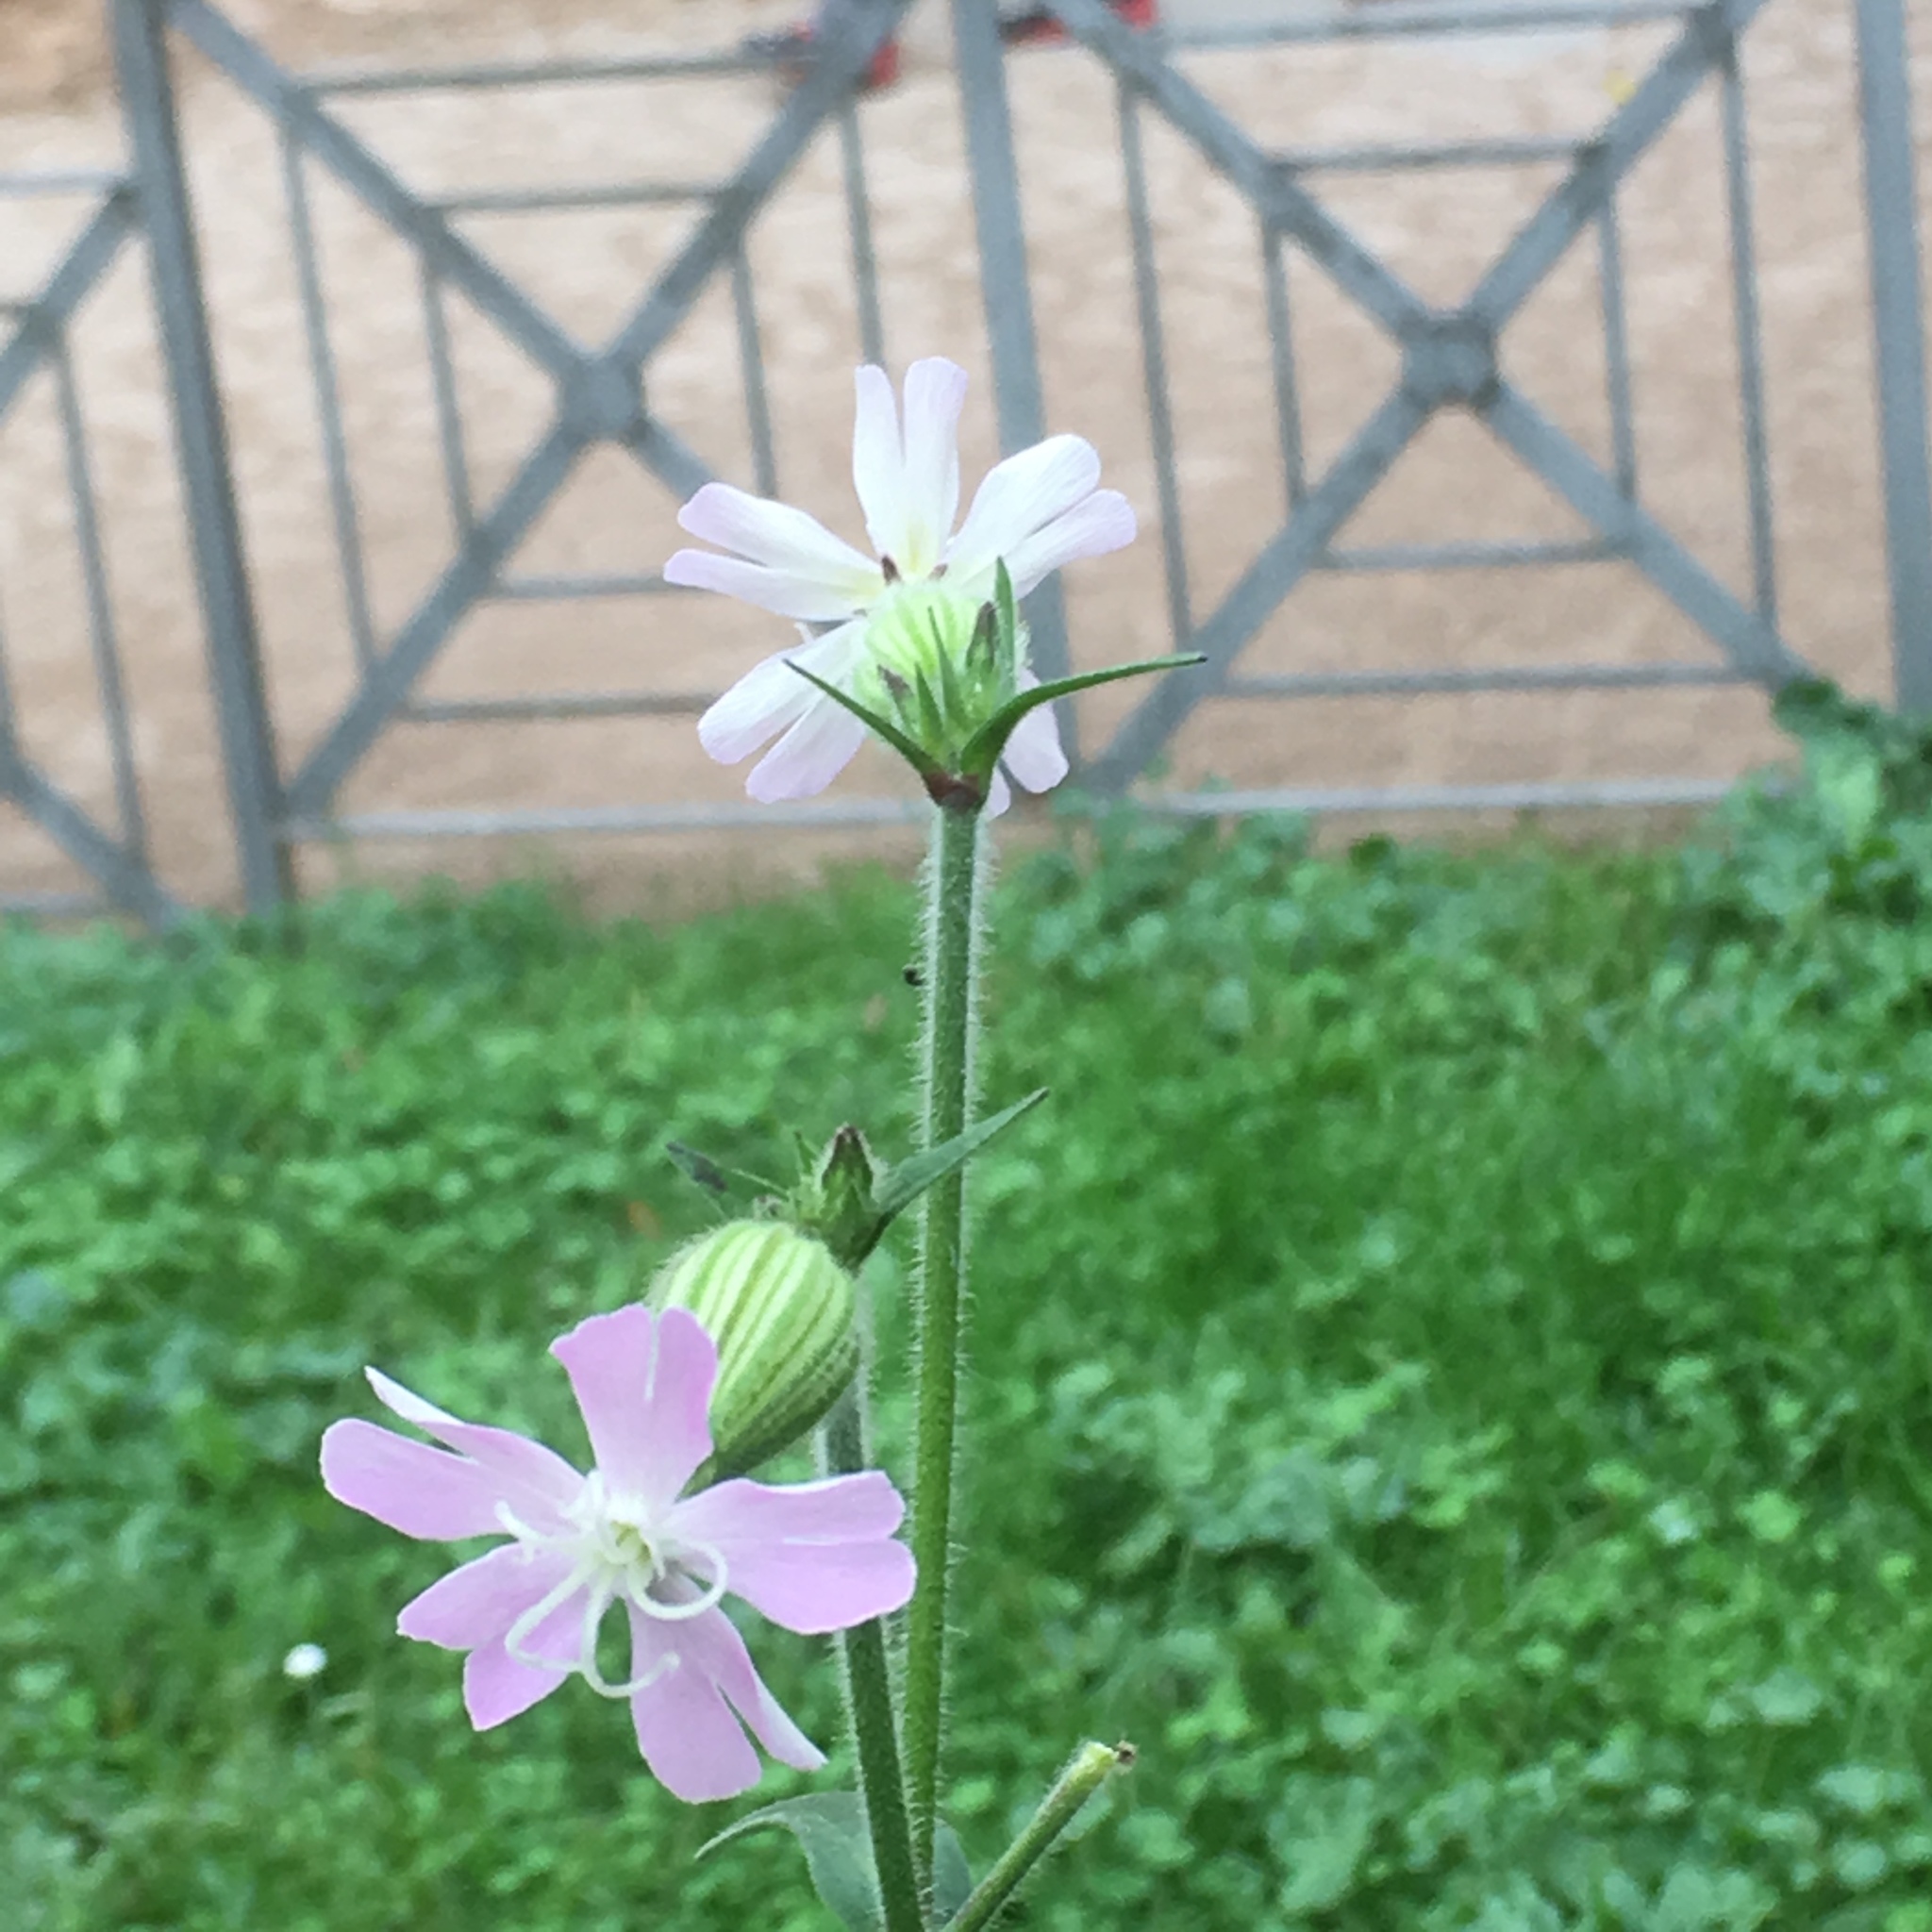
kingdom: Plantae
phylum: Tracheophyta
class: Magnoliopsida
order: Caryophyllales
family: Caryophyllaceae
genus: Silene
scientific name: Silene dioica
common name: Red campion
